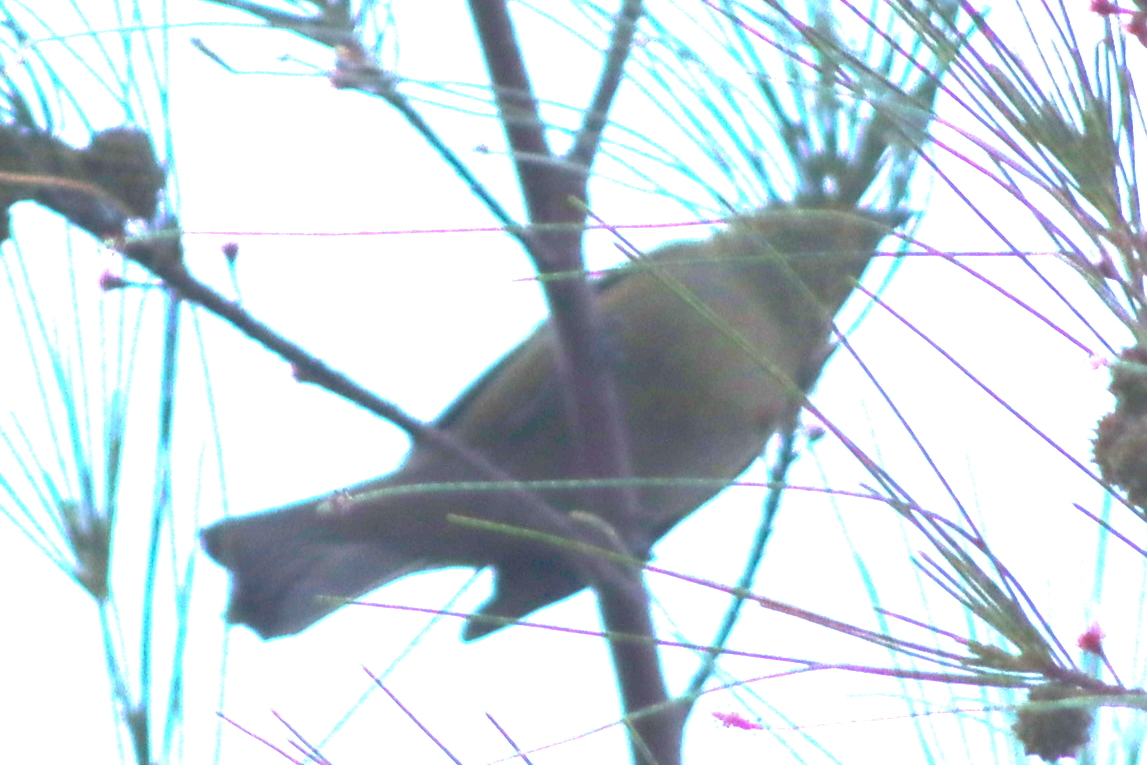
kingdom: Animalia
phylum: Chordata
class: Aves
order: Passeriformes
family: Thraupidae
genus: Thraupis
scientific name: Thraupis palmarum
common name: Palm tanager
